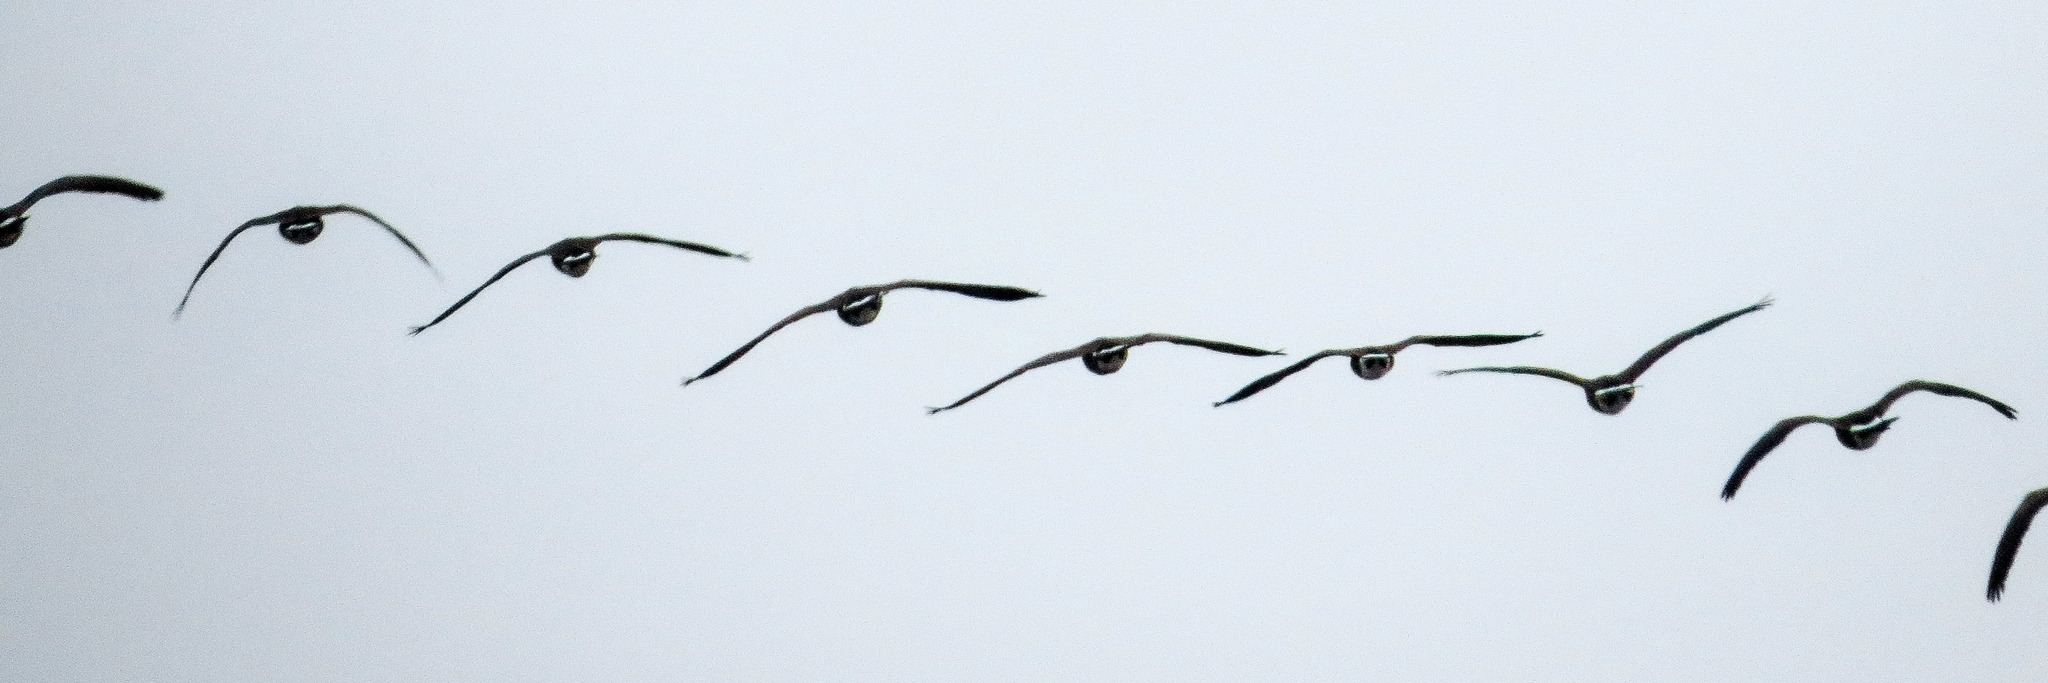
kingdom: Animalia
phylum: Chordata
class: Aves
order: Anseriformes
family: Anatidae
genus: Branta
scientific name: Branta canadensis
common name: Canada goose
